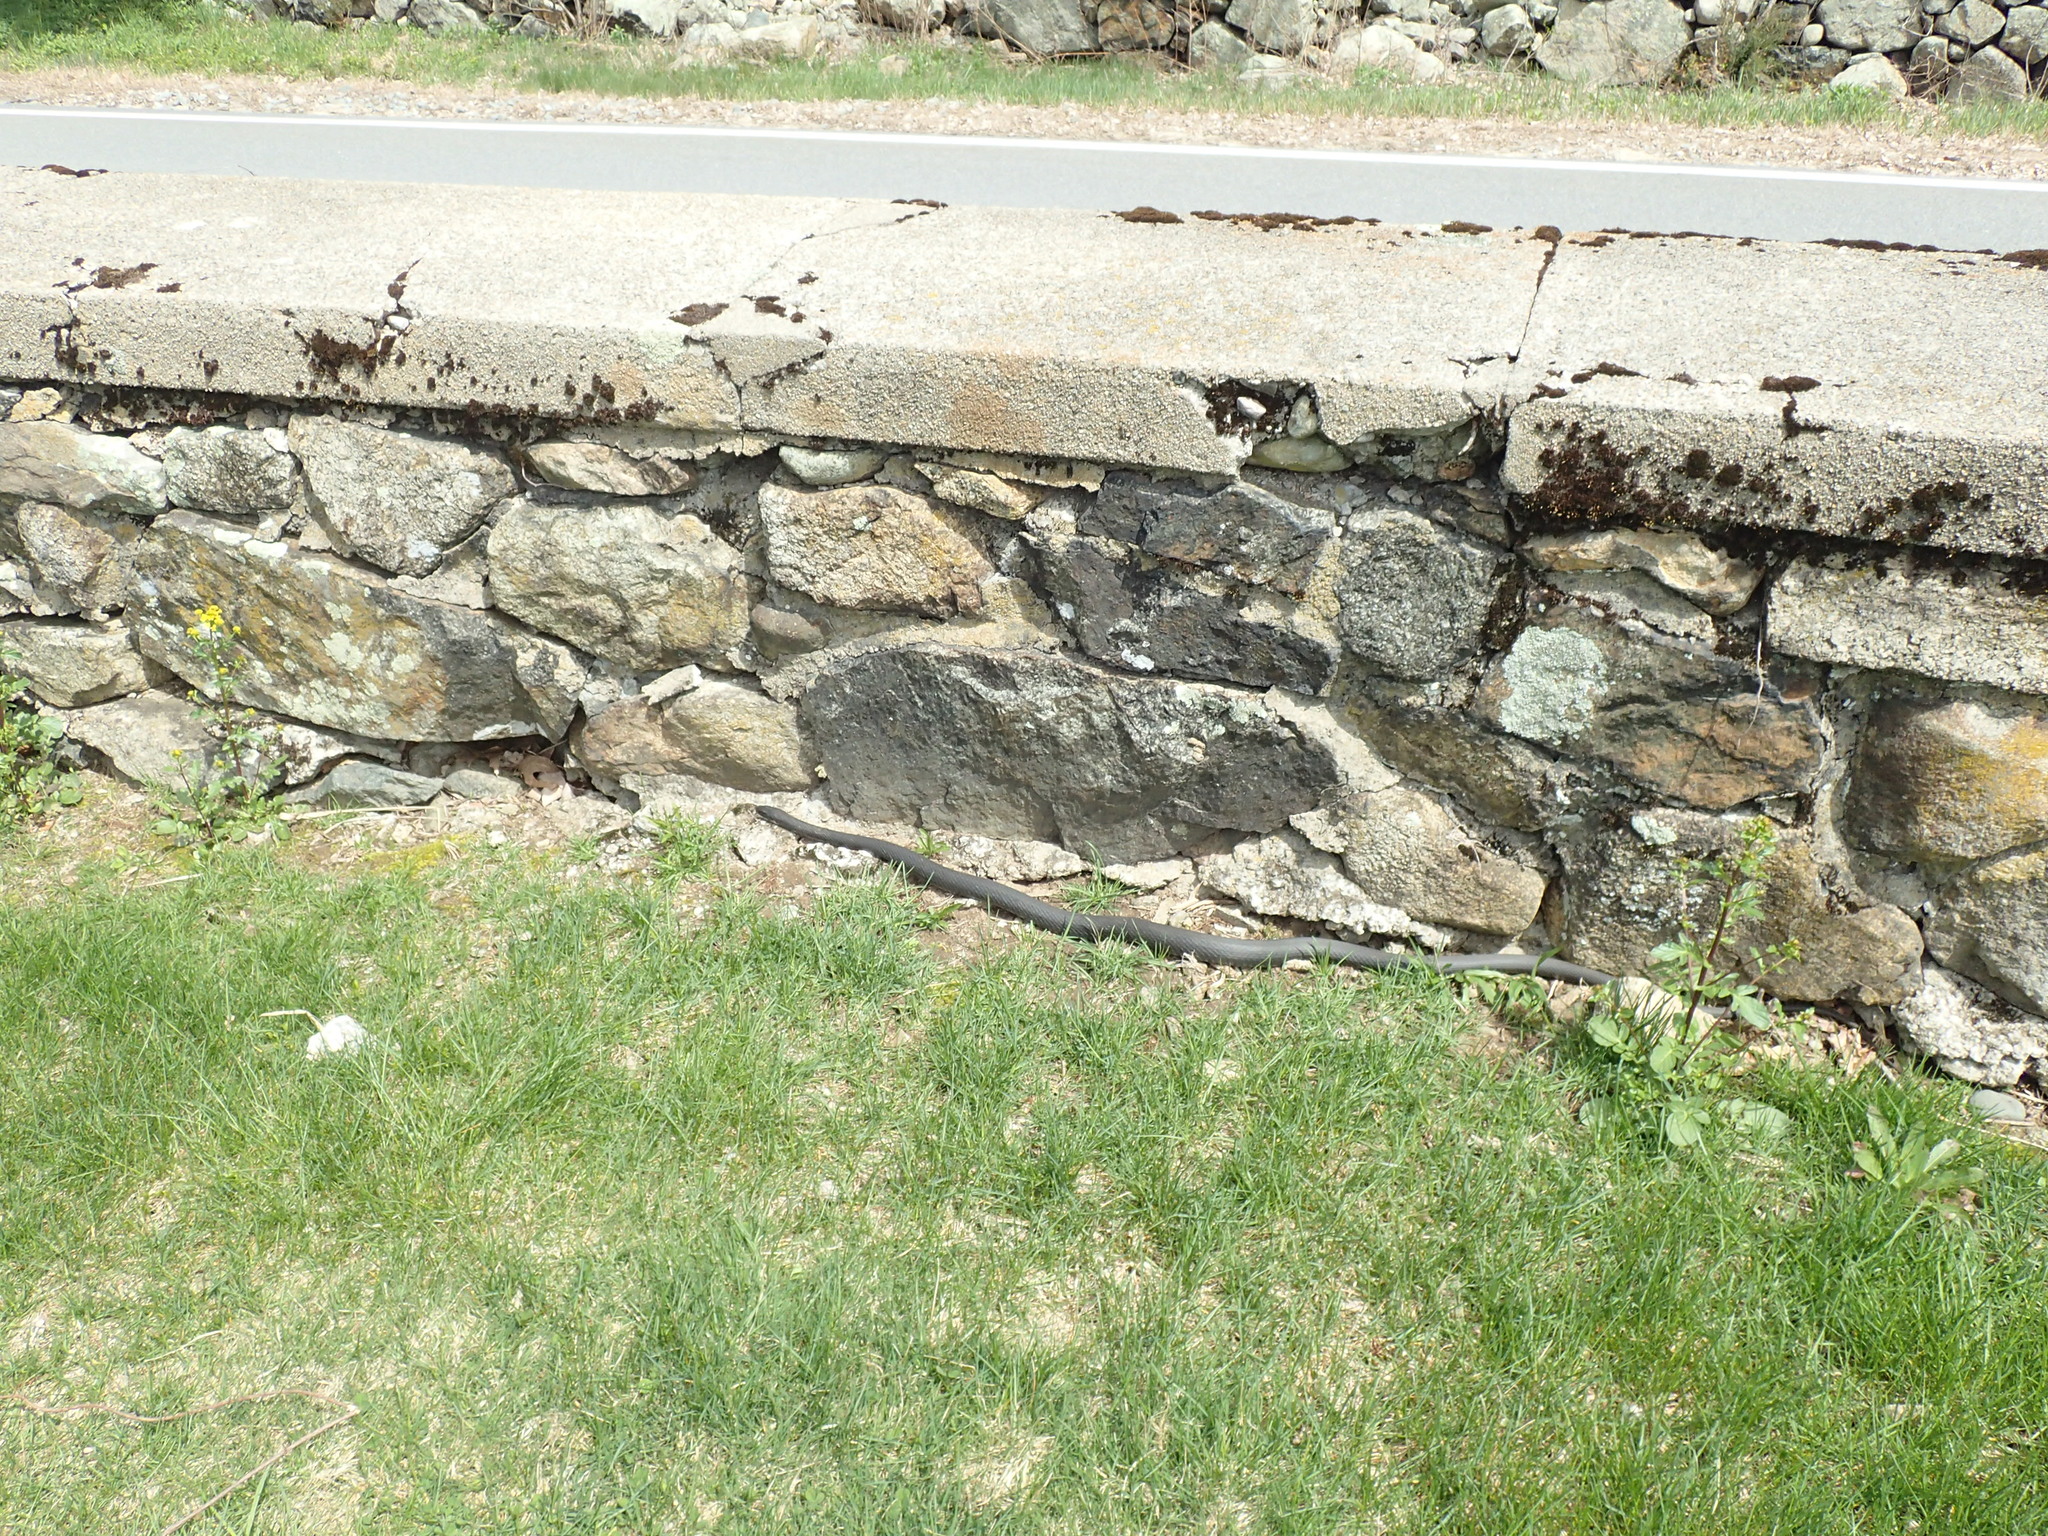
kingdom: Animalia
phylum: Chordata
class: Squamata
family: Colubridae
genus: Coluber
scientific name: Coluber constrictor
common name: Eastern racer
